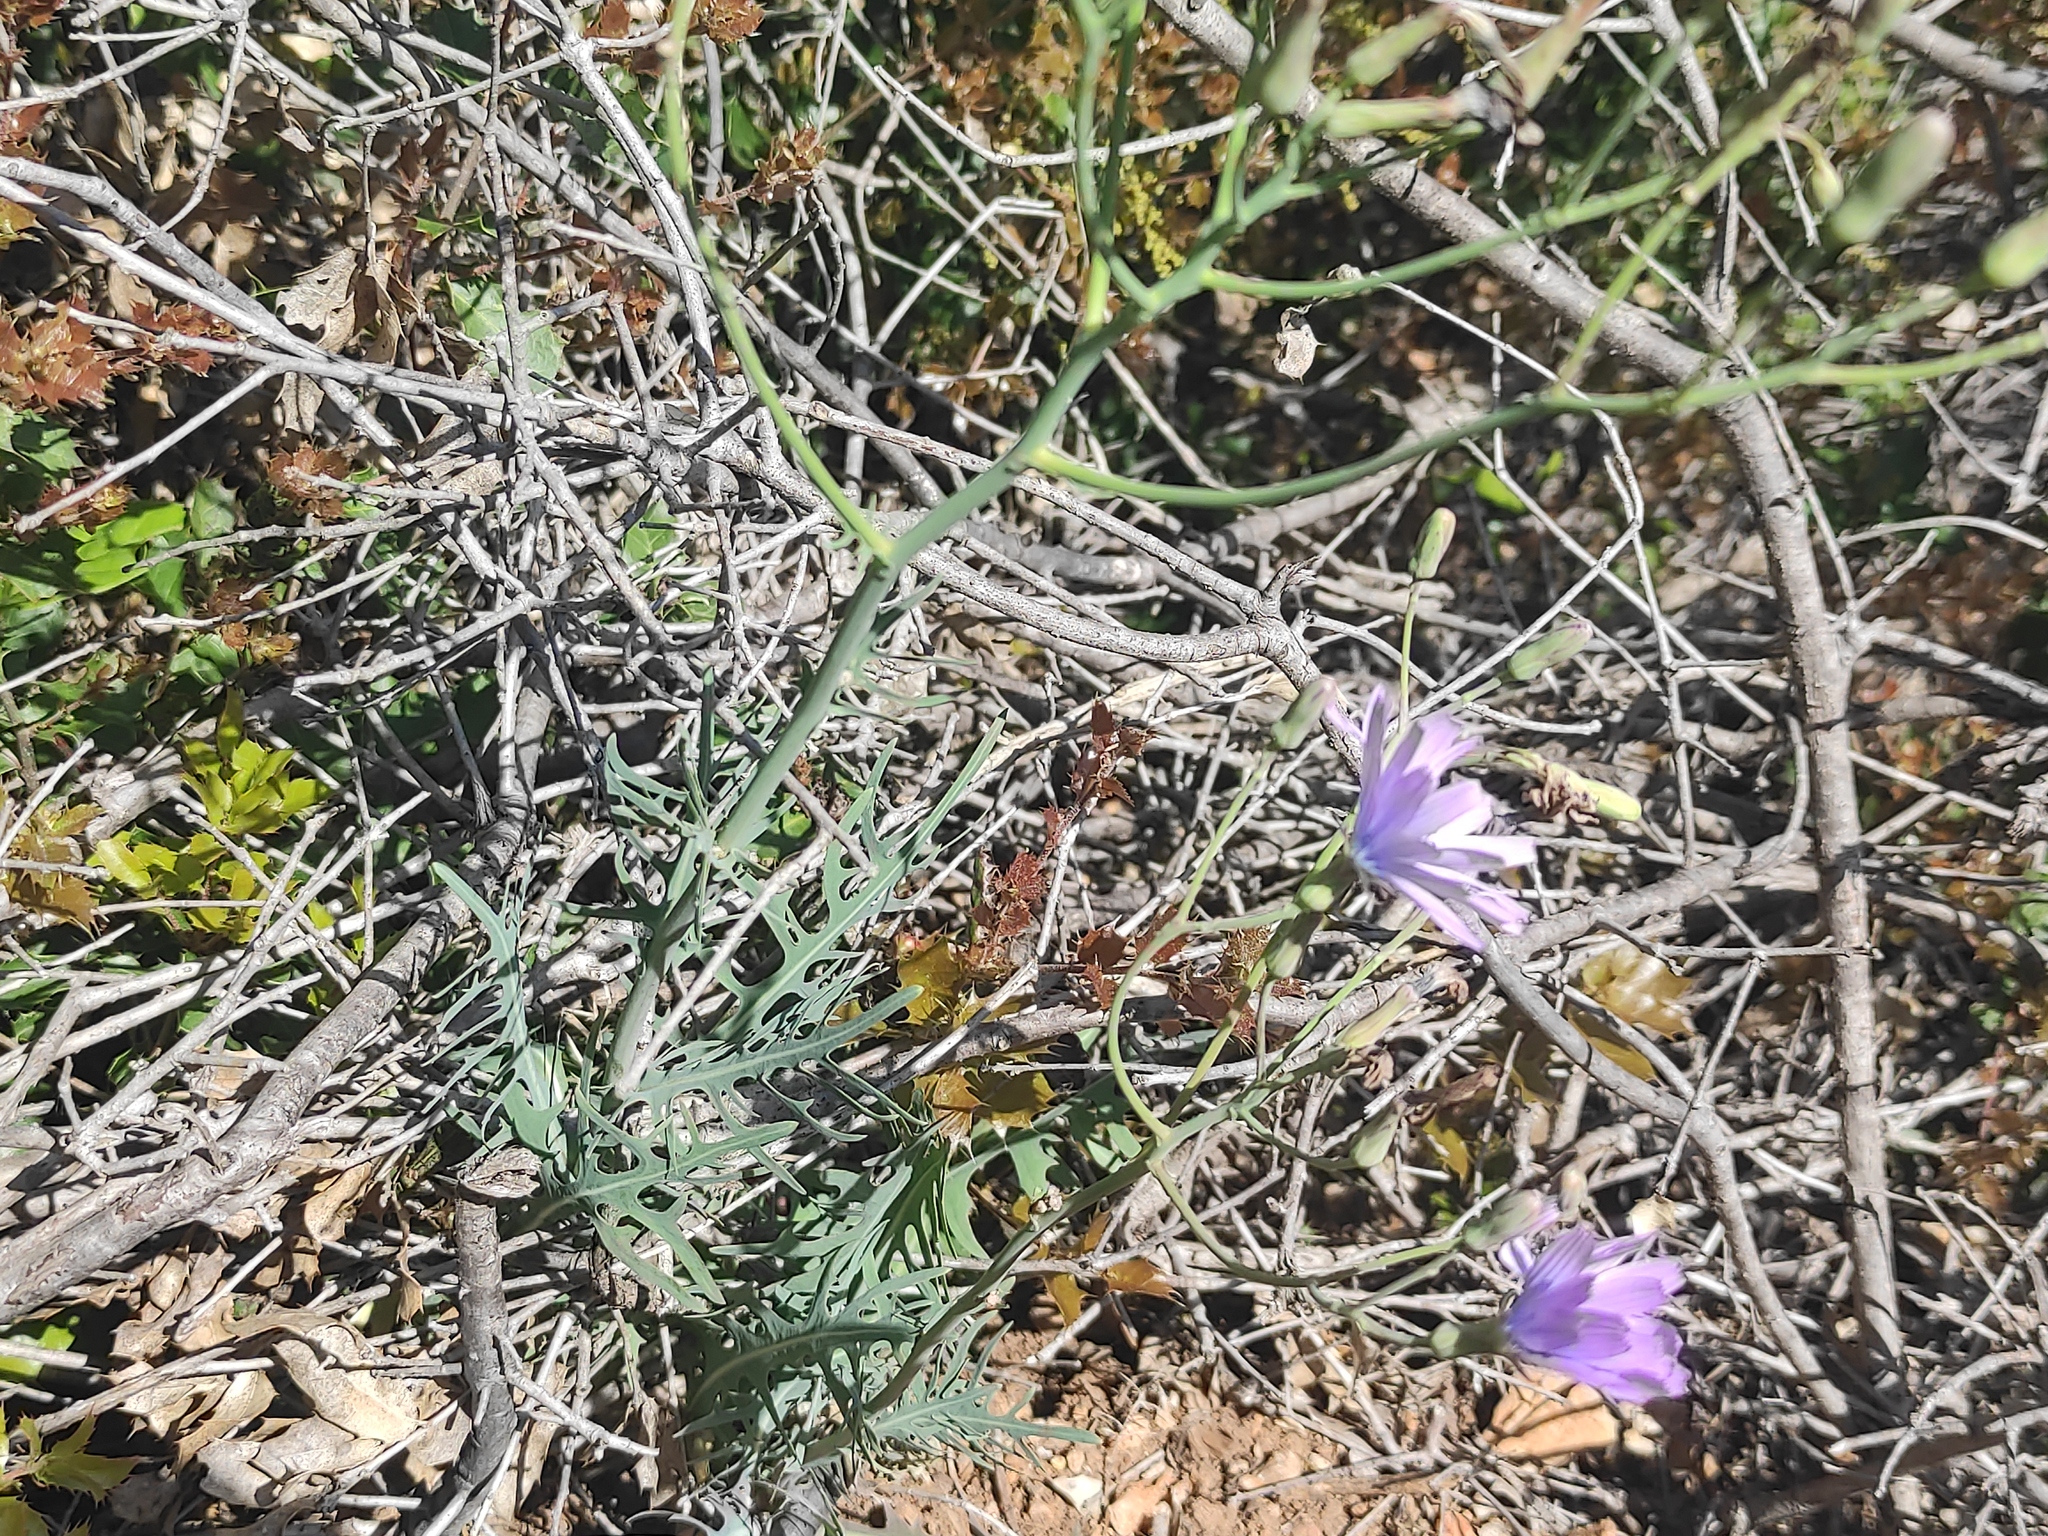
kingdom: Plantae
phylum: Tracheophyta
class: Magnoliopsida
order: Asterales
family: Asteraceae
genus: Lactuca
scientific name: Lactuca perennis
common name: Mountain lettuce
